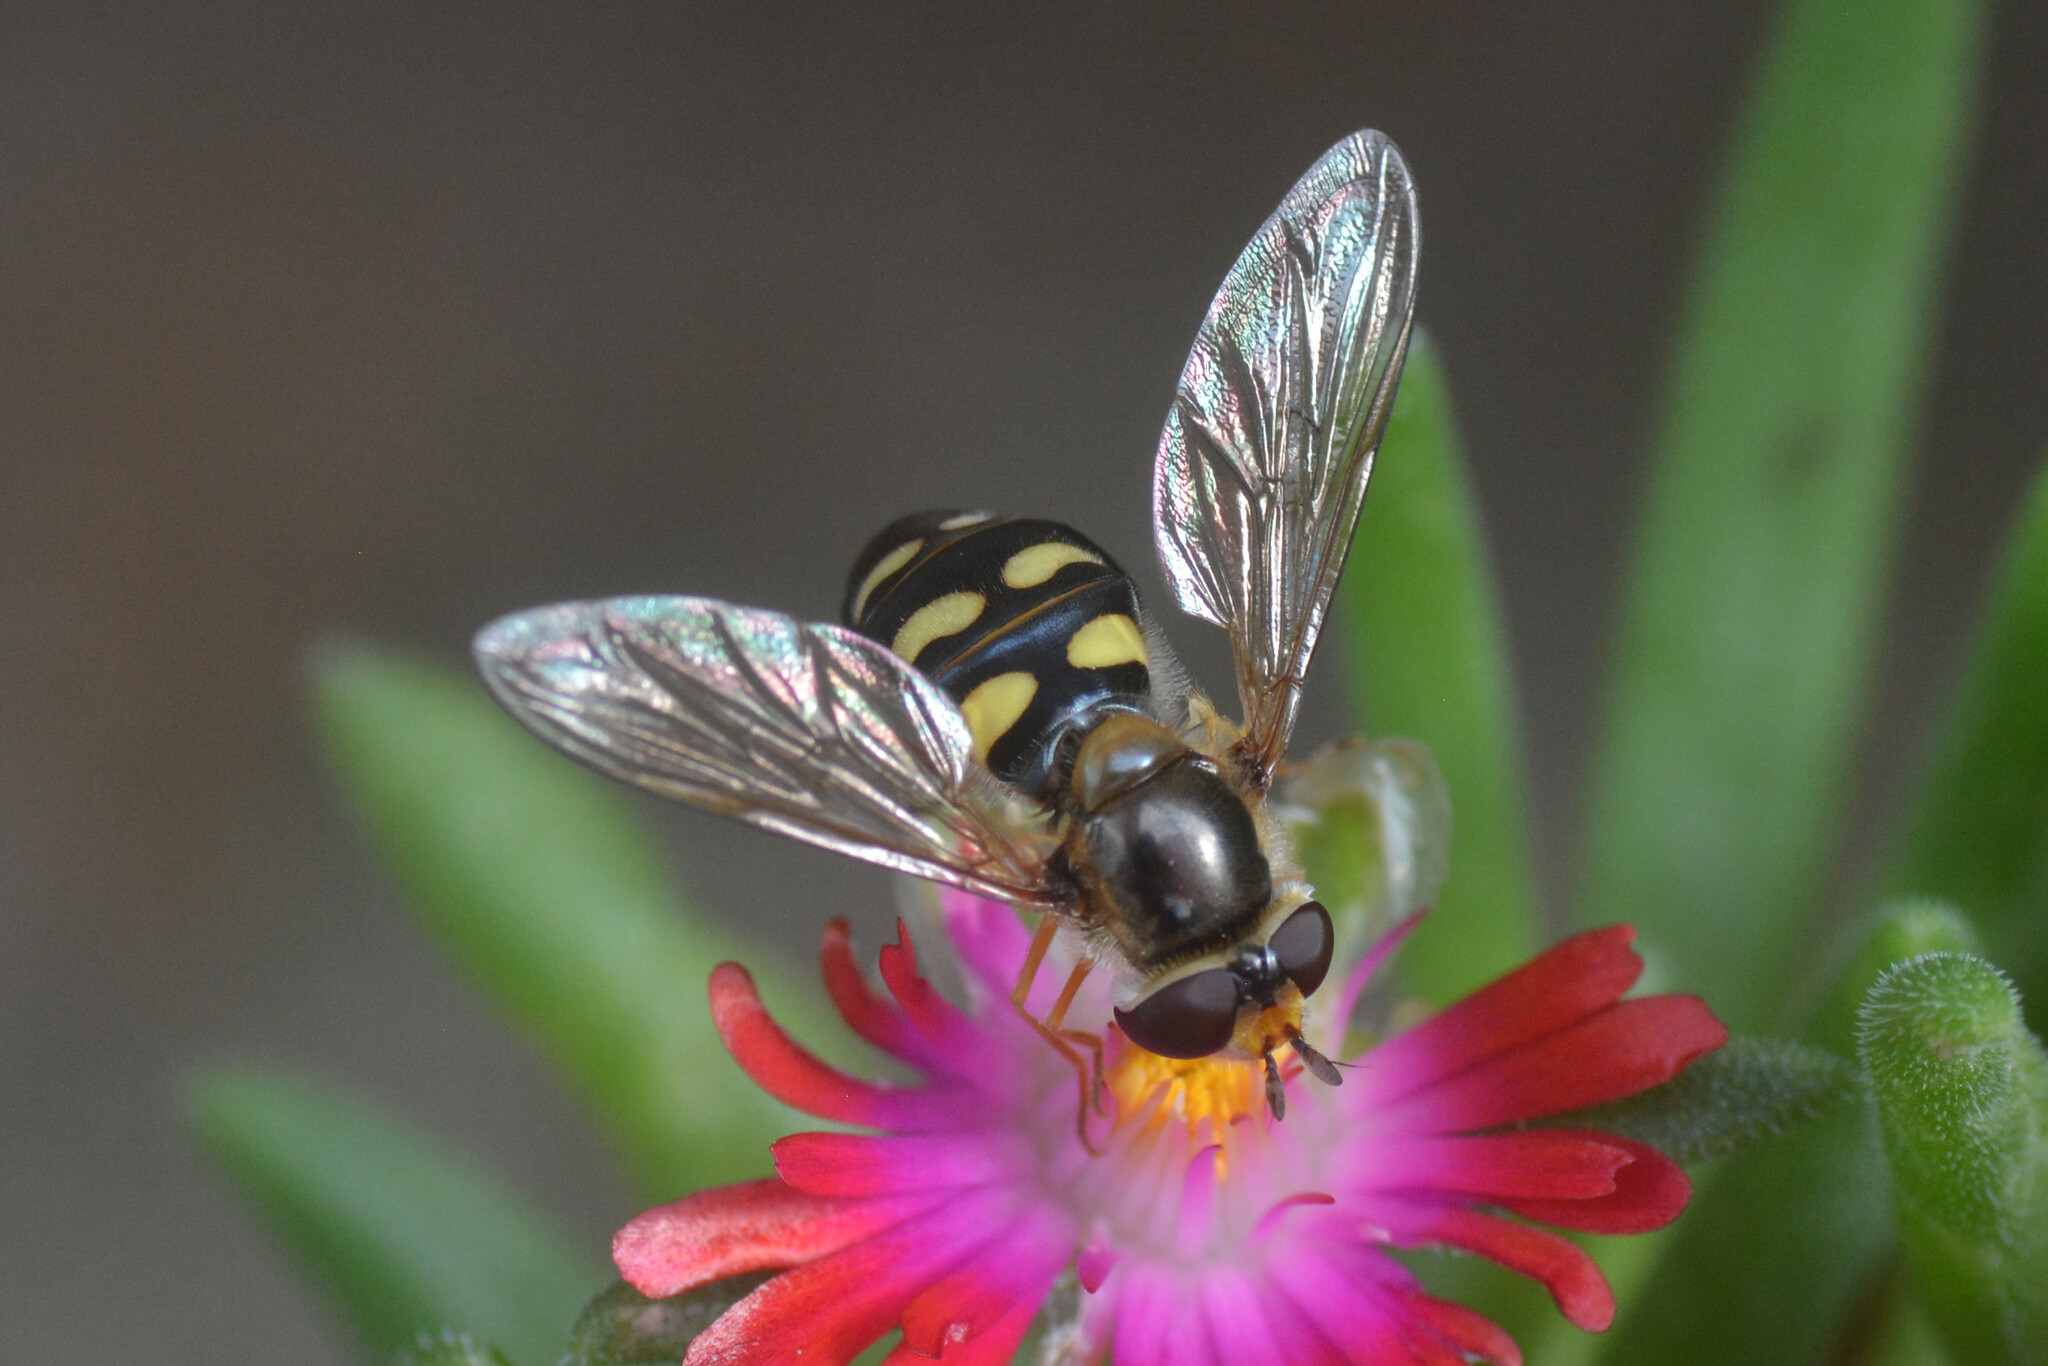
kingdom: Animalia
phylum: Arthropoda
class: Insecta
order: Diptera
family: Syrphidae
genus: Eupeodes
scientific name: Eupeodes luniger
